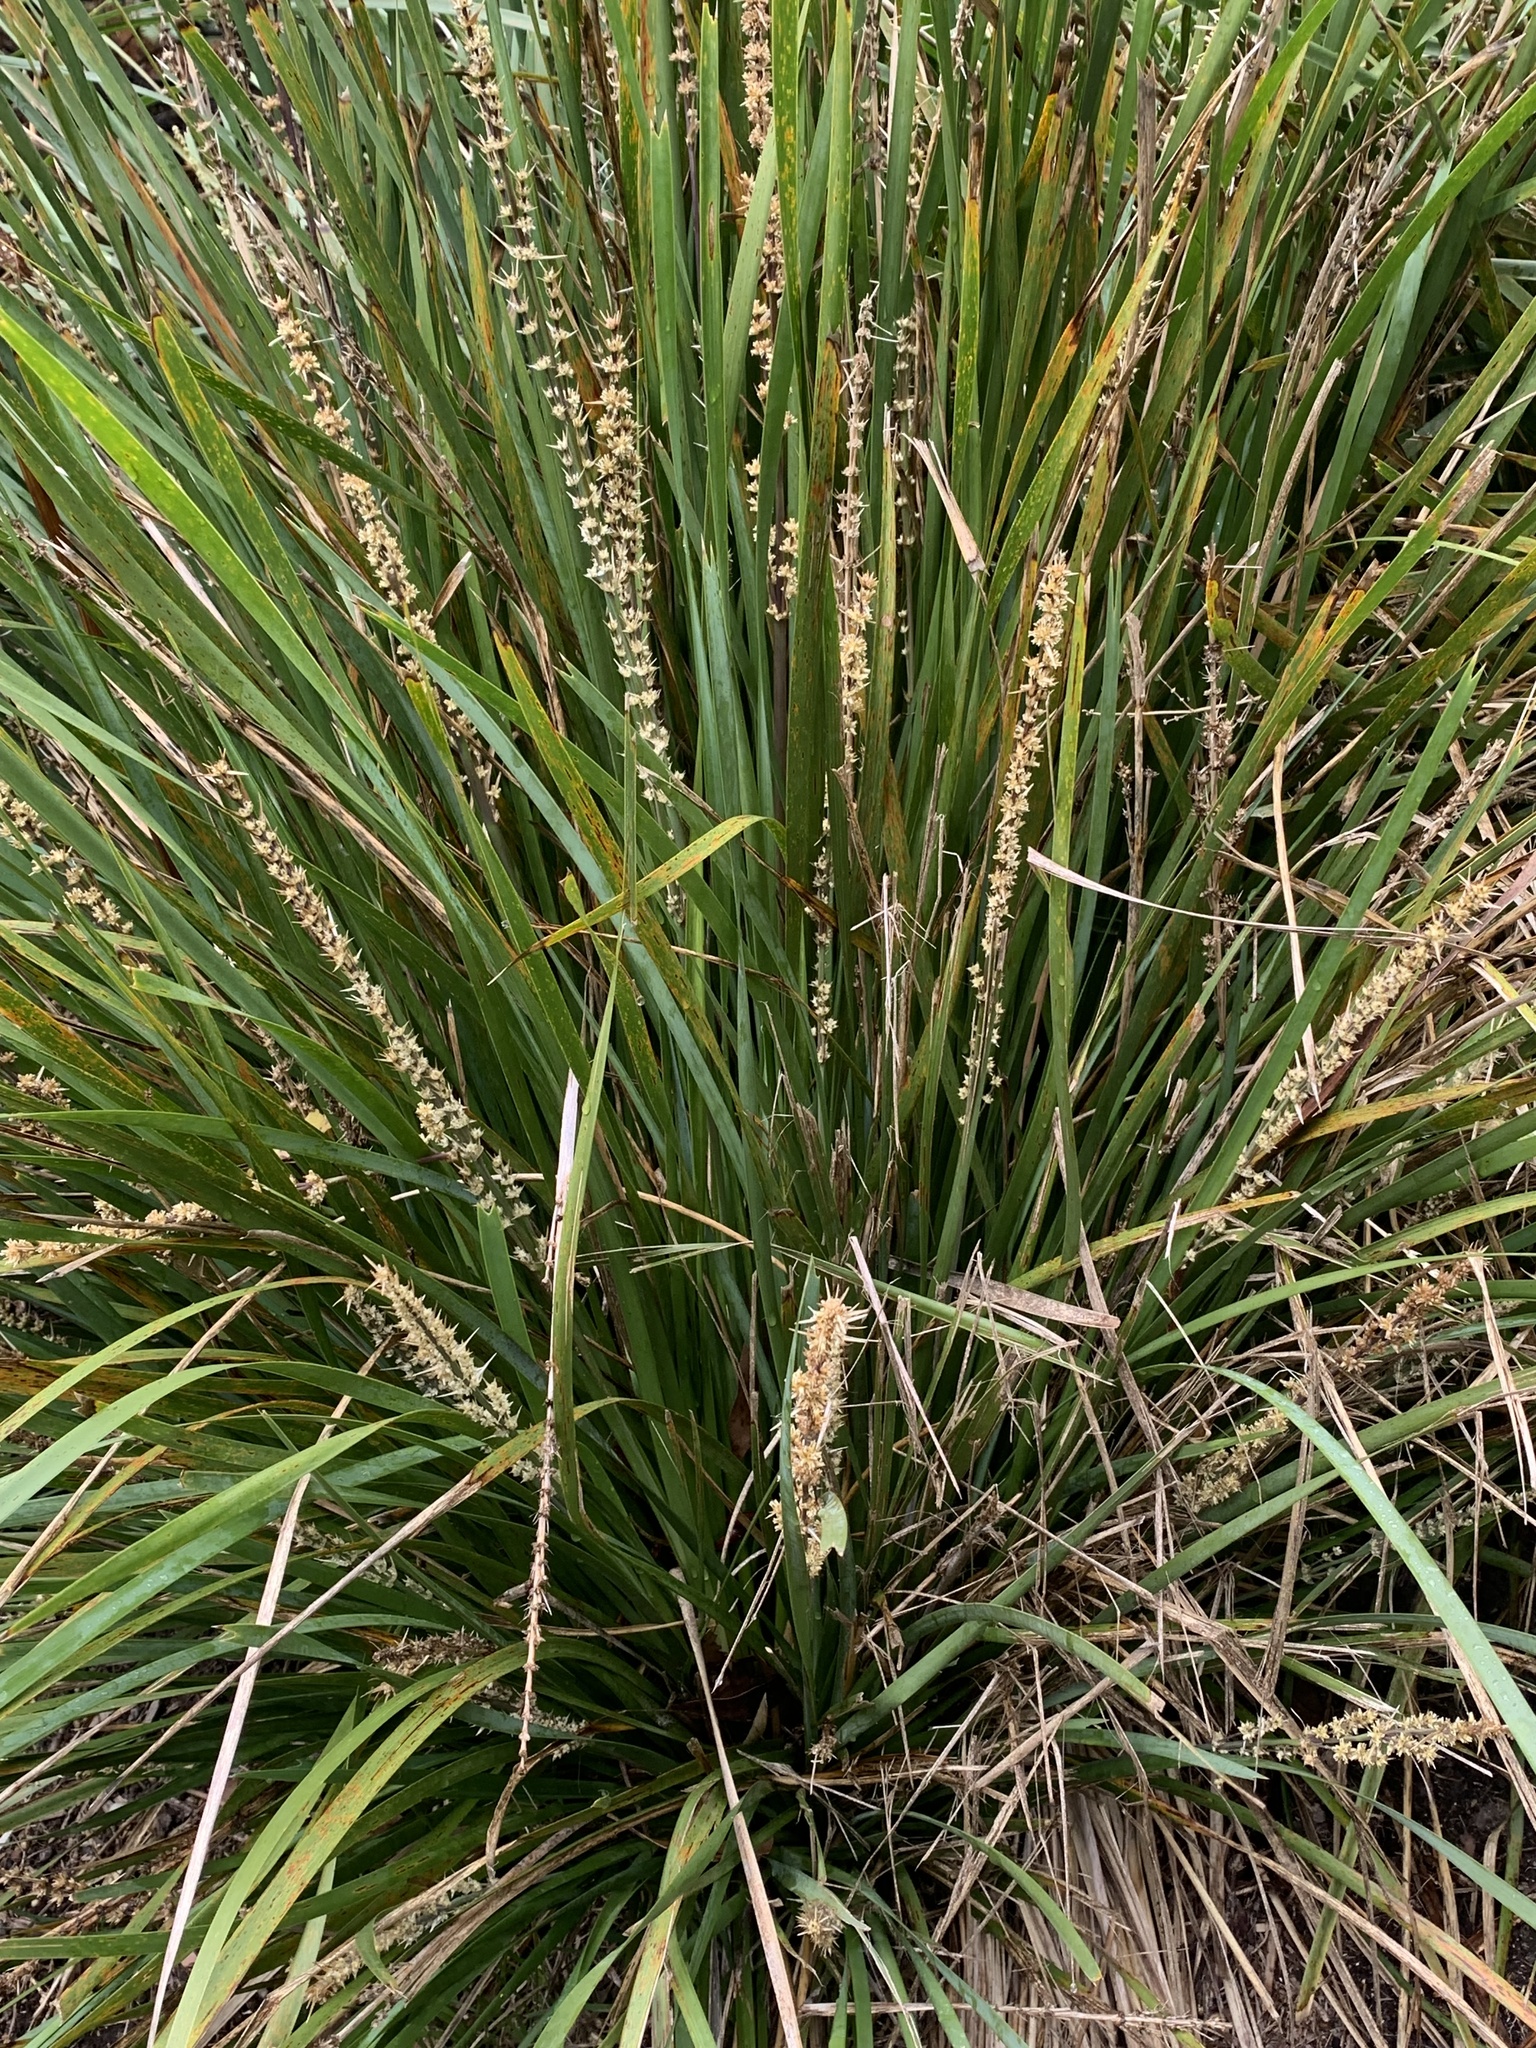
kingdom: Plantae
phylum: Tracheophyta
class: Liliopsida
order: Asparagales
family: Asparagaceae
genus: Lomandra
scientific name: Lomandra longifolia
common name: Longleaf mat-rush
